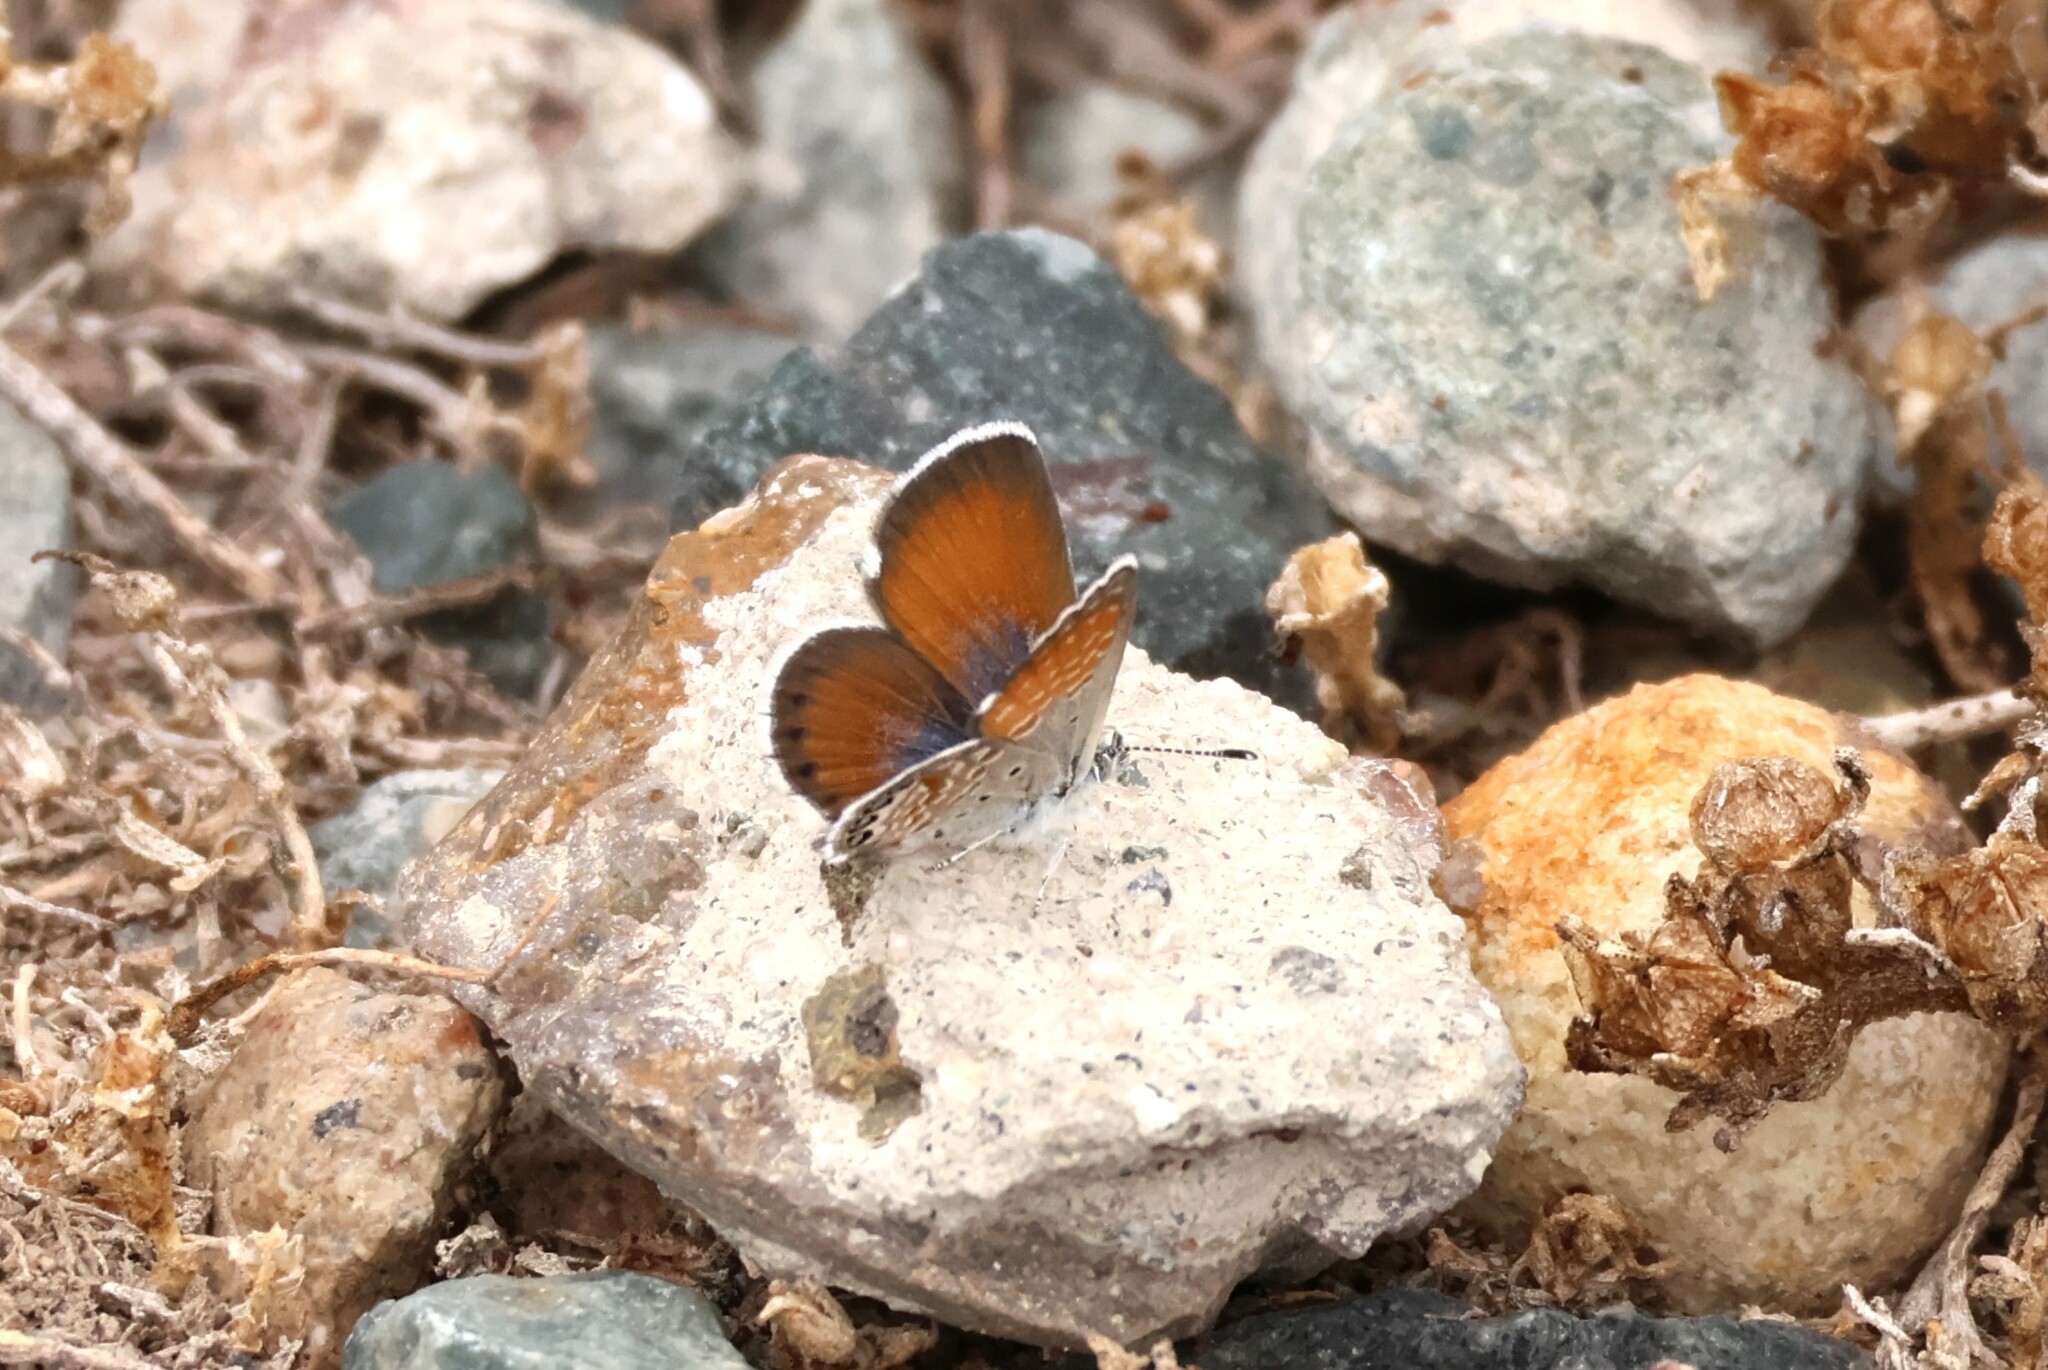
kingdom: Animalia
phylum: Arthropoda
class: Insecta
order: Lepidoptera
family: Lycaenidae
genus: Brephidium
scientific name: Brephidium exilis
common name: Pygmy blue
